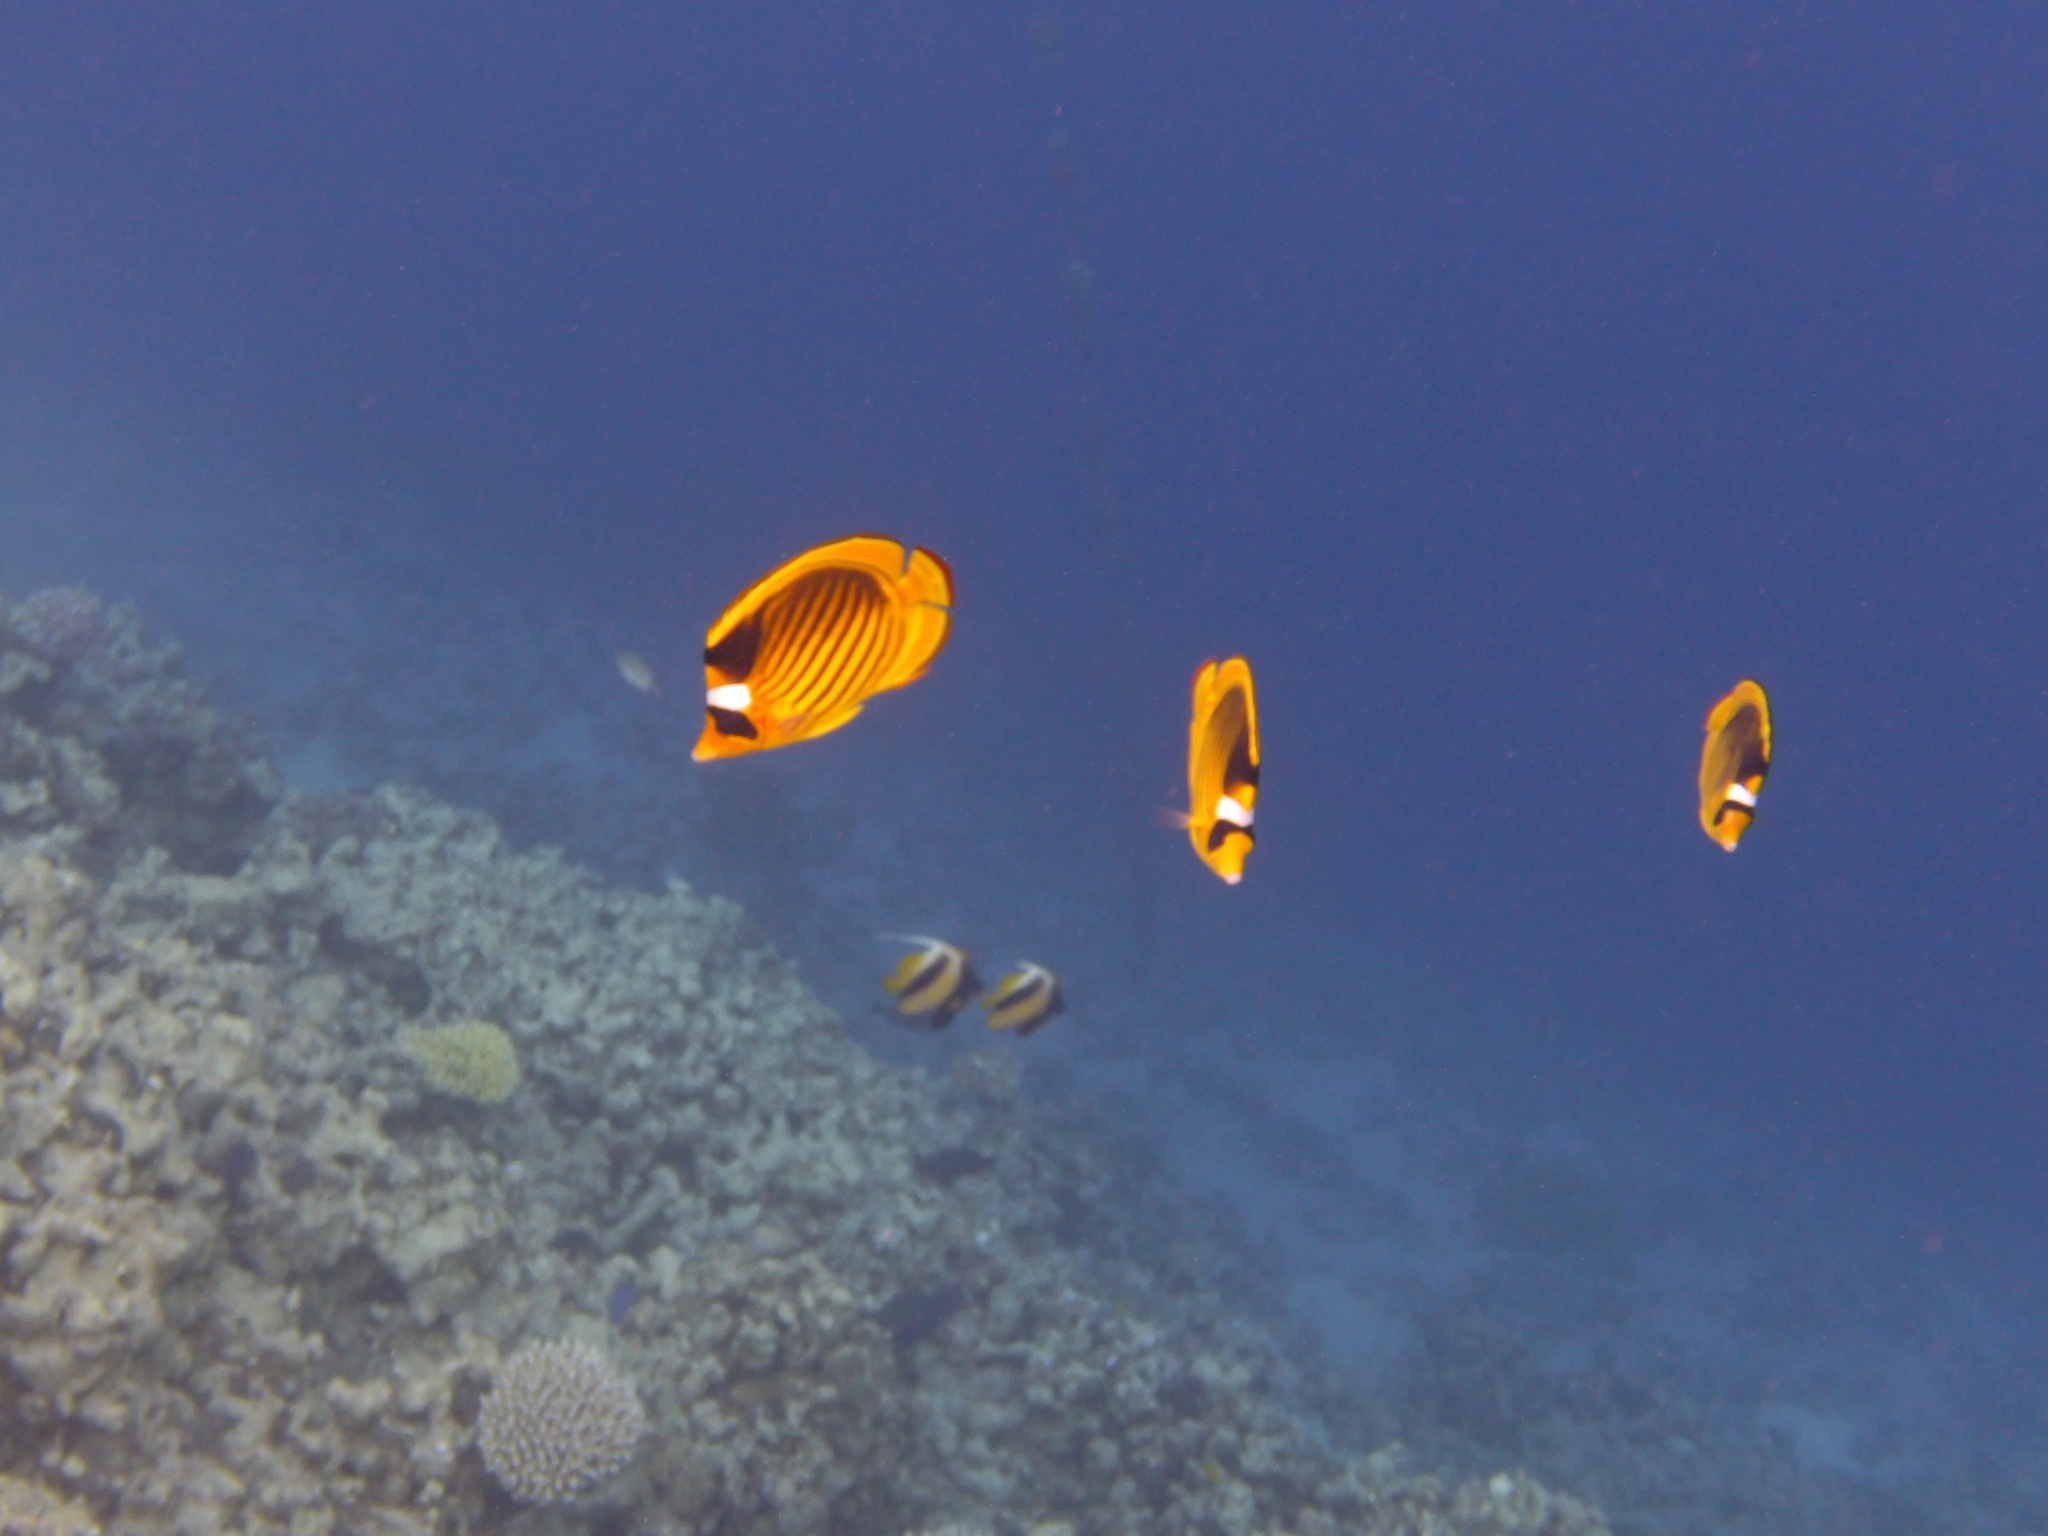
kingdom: Animalia
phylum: Chordata
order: Perciformes
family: Chaetodontidae
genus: Chaetodon
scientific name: Chaetodon fasciatus
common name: Diagonal butterflyfish
